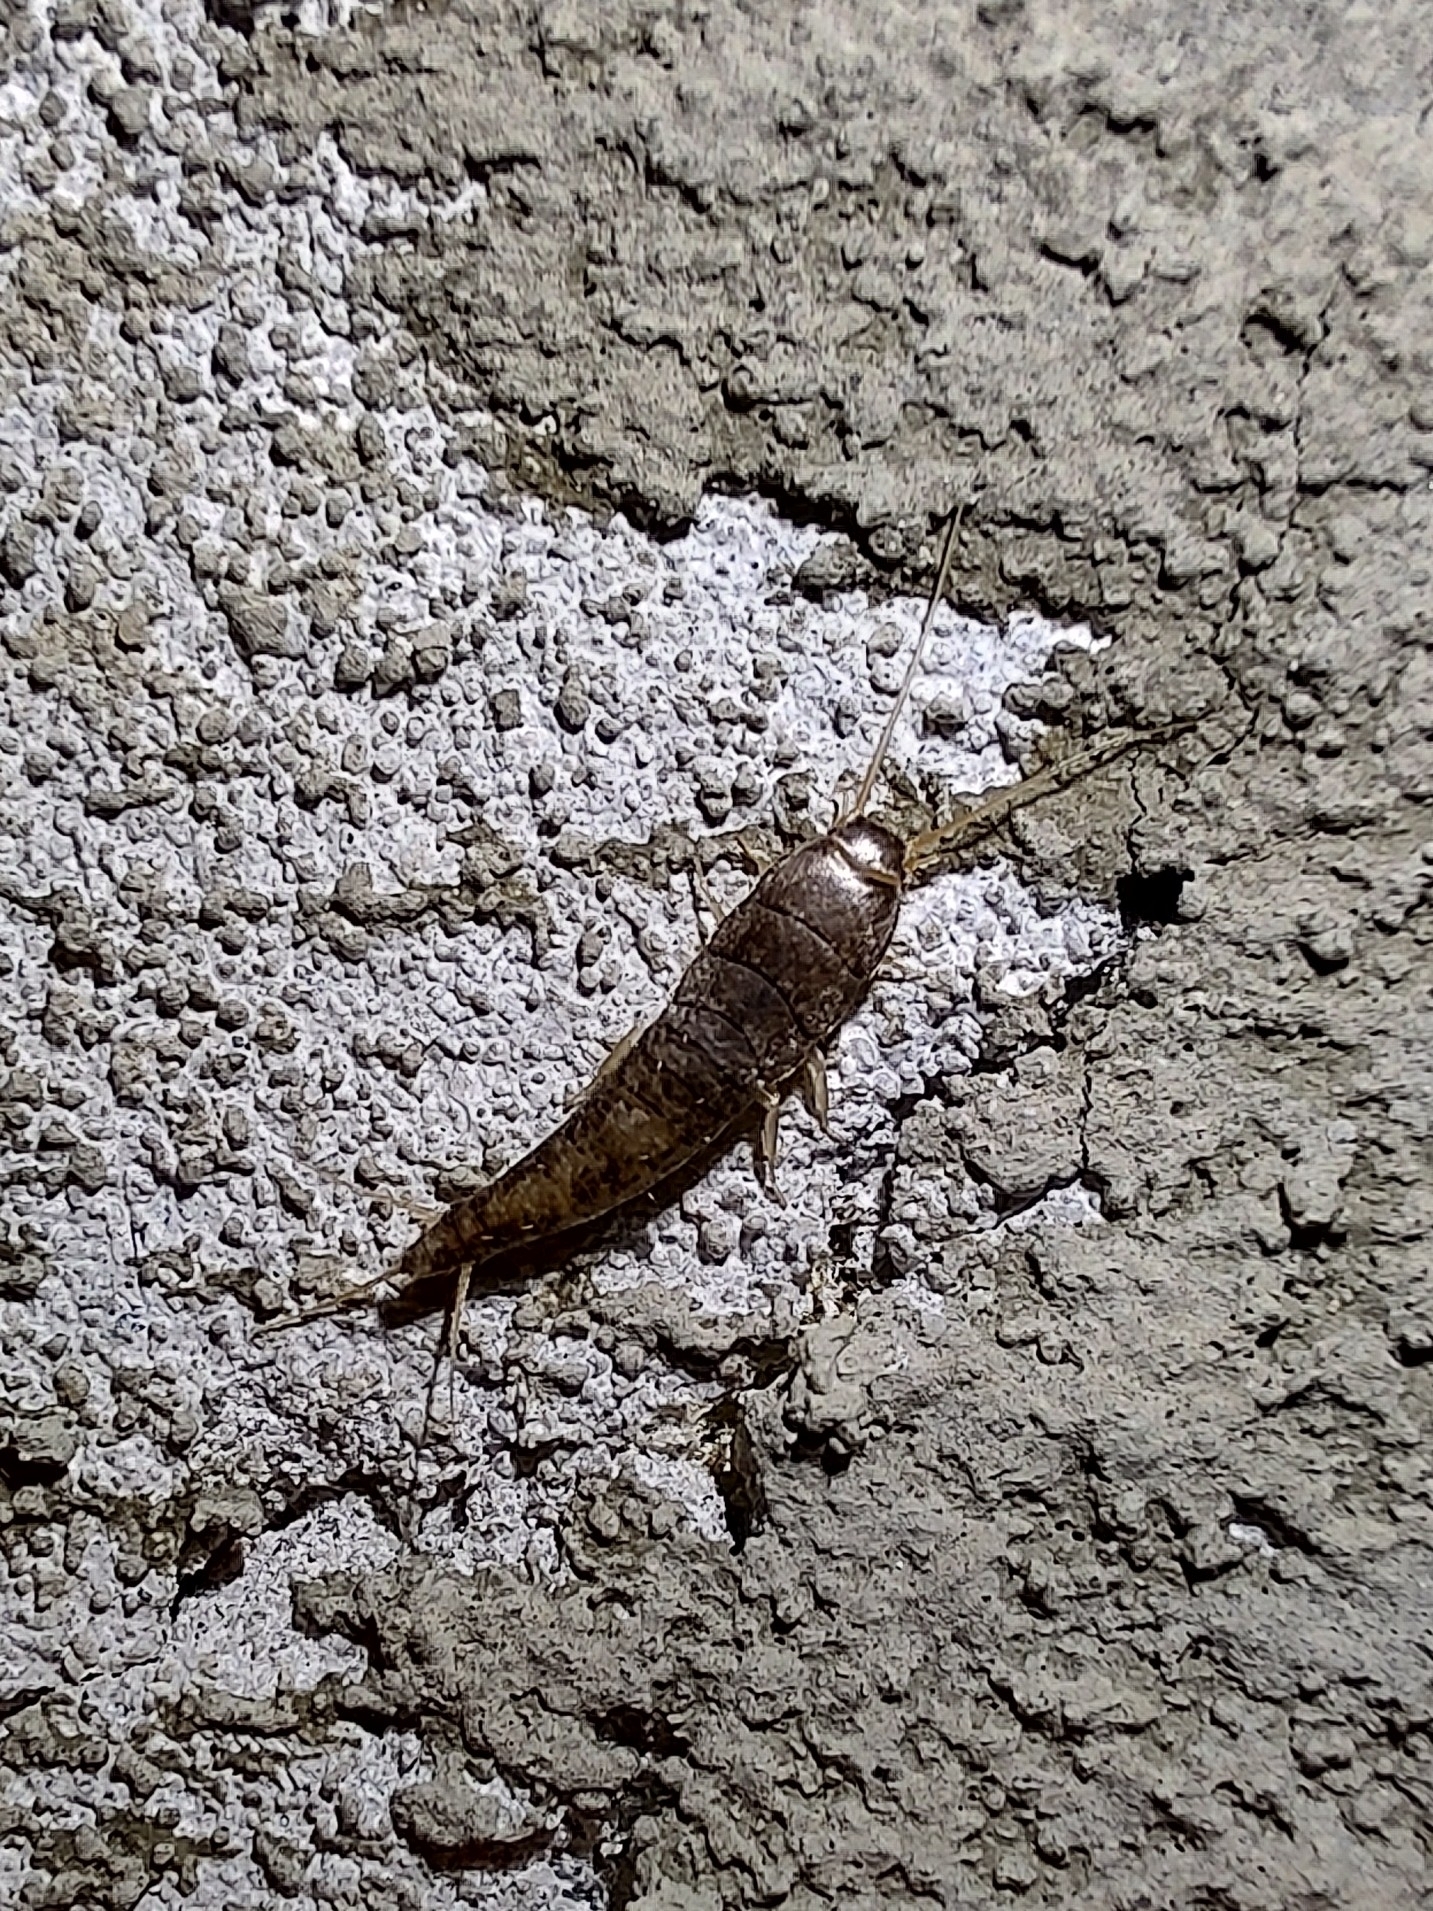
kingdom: Animalia
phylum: Arthropoda
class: Insecta
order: Zygentoma
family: Lepismatidae
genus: Lepisma
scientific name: Lepisma saccharinum
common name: Silverfish
